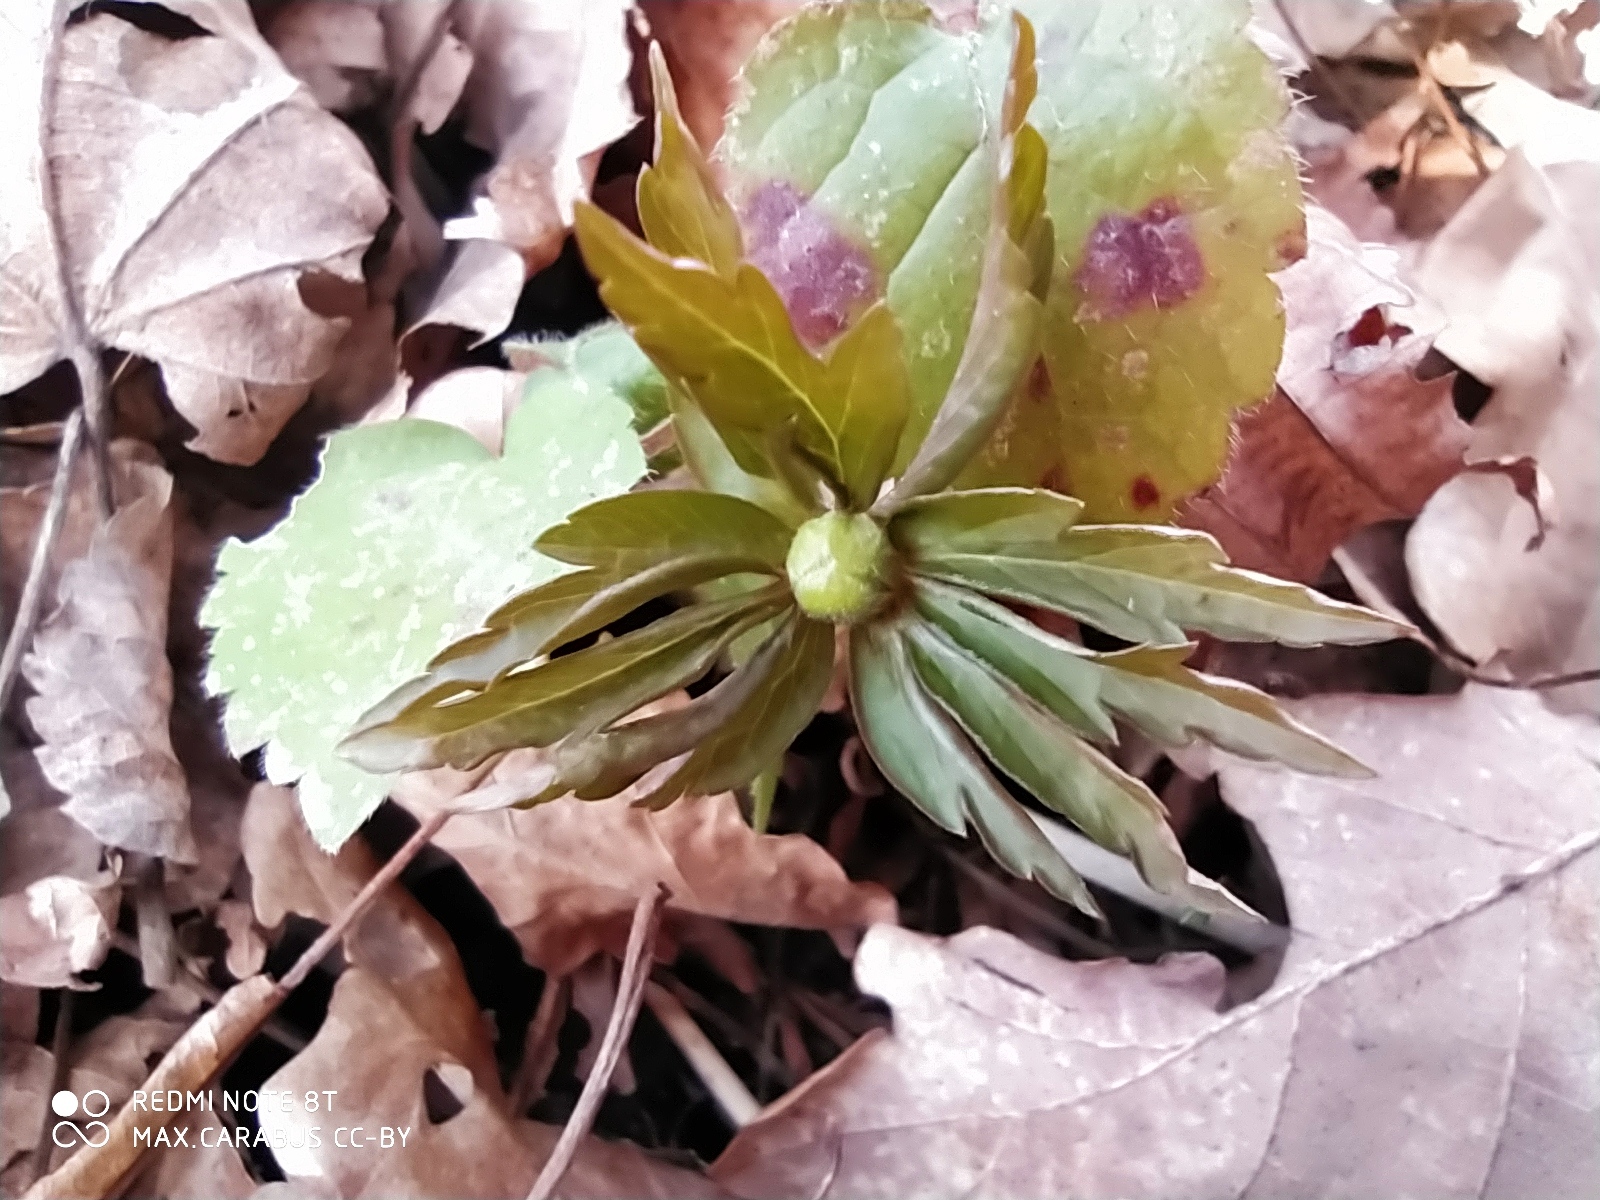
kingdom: Plantae
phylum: Tracheophyta
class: Magnoliopsida
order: Ranunculales
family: Ranunculaceae
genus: Anemone
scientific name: Anemone ranunculoides
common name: Yellow anemone
